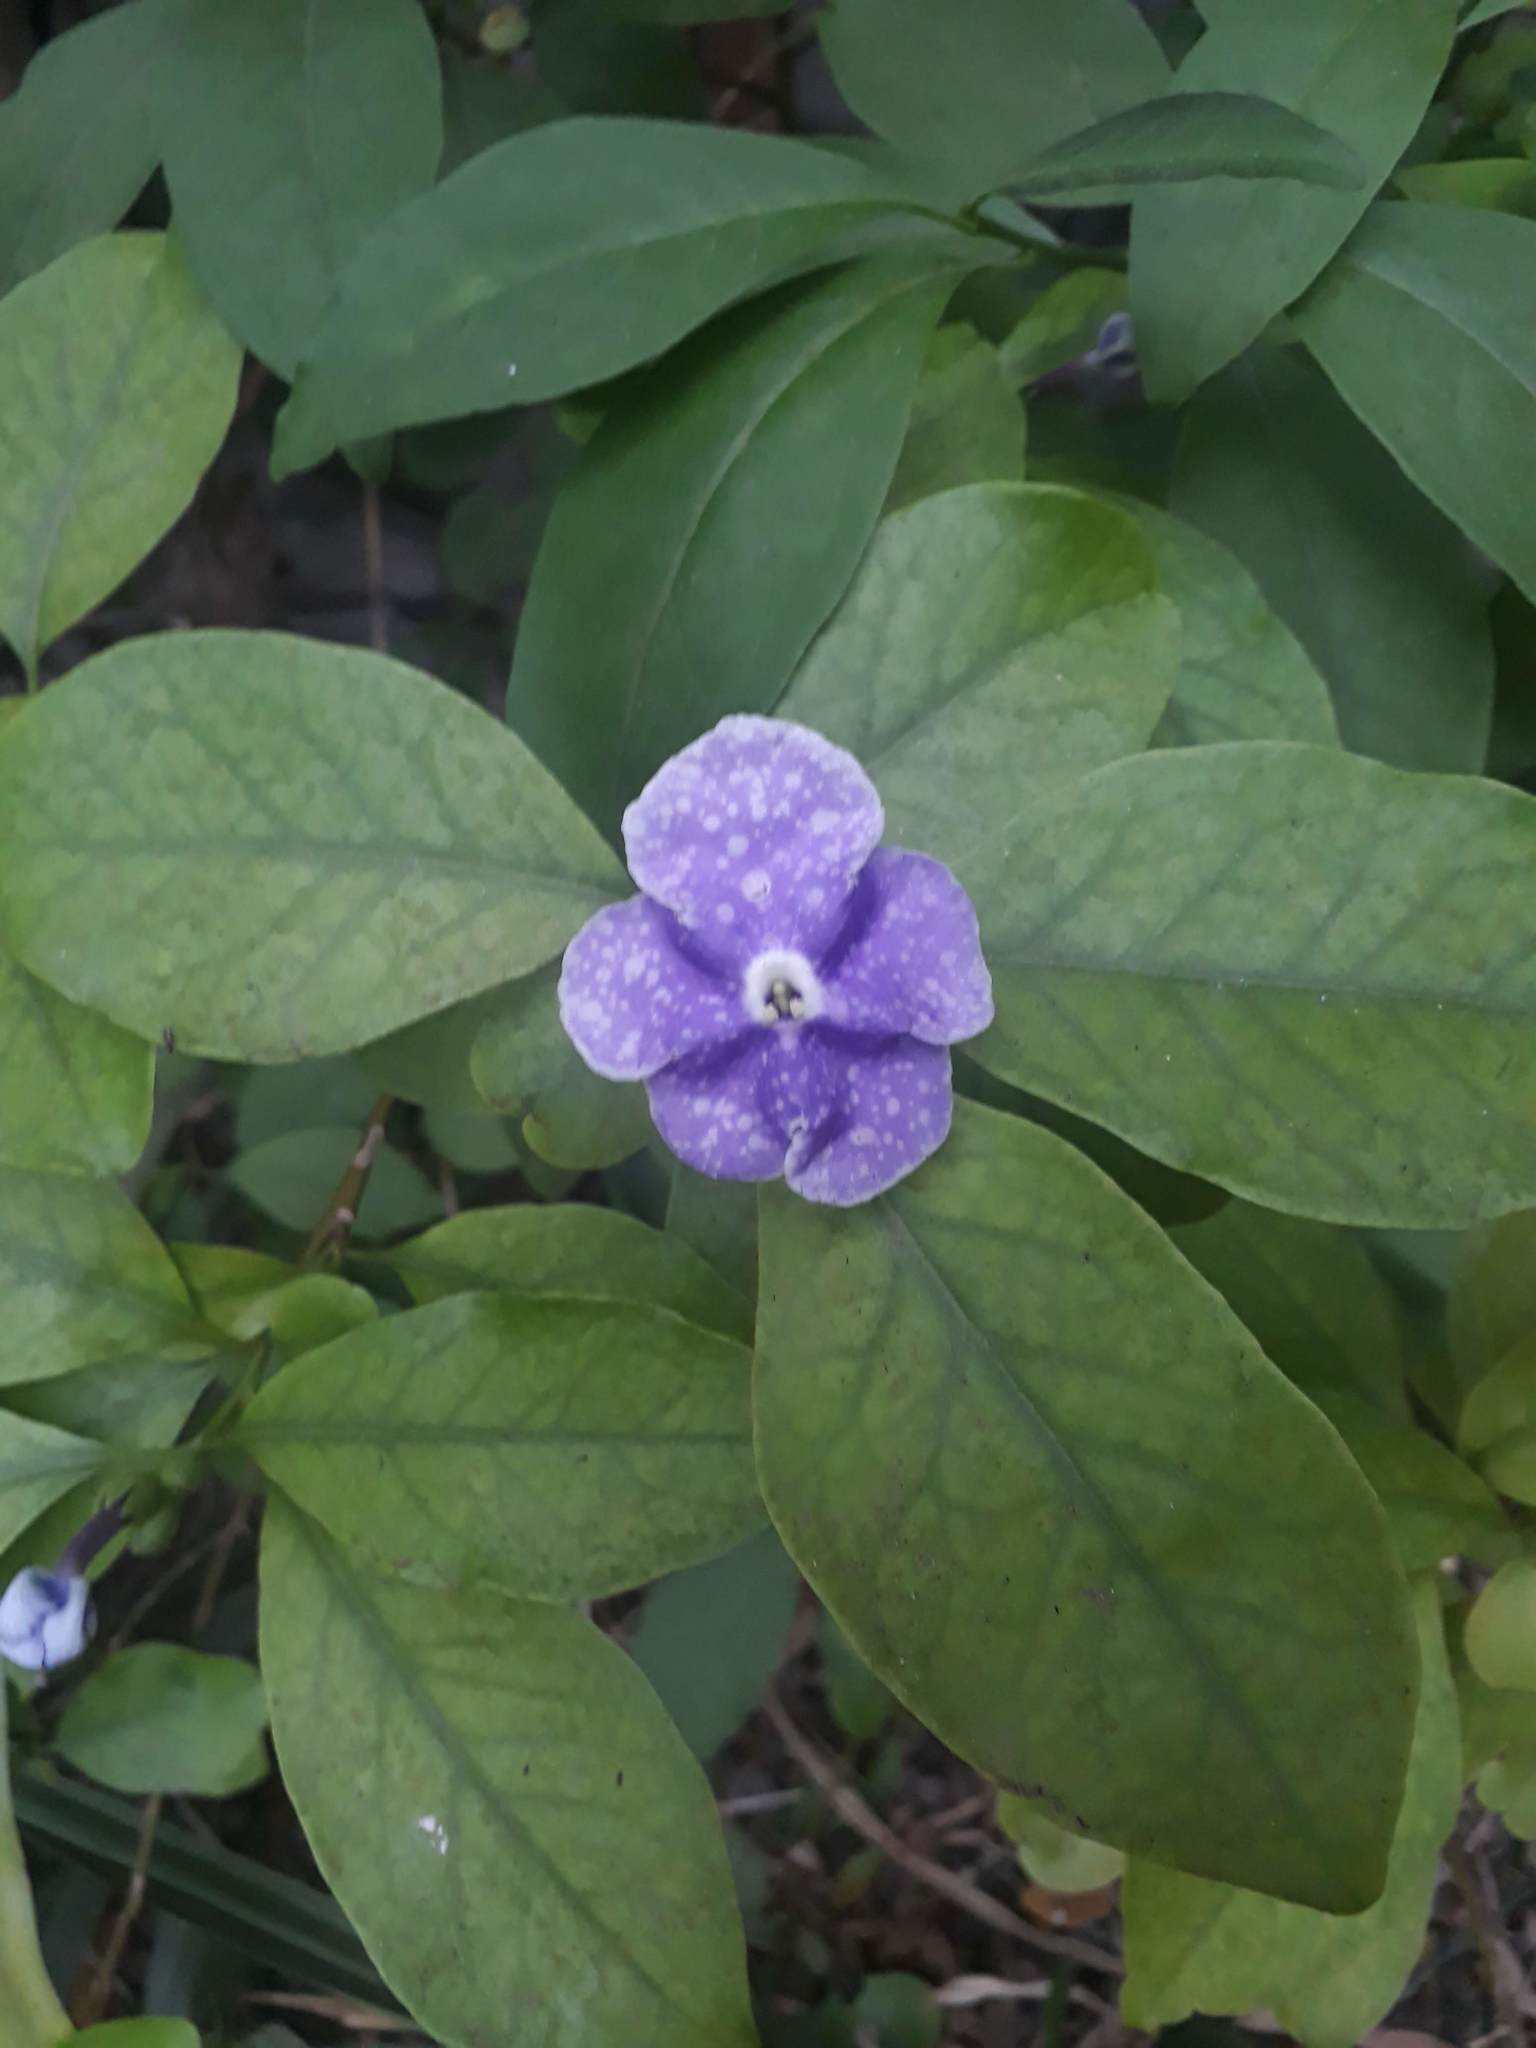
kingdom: Plantae
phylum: Tracheophyta
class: Magnoliopsida
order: Solanales
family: Solanaceae
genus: Brunfelsia
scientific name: Brunfelsia australis
